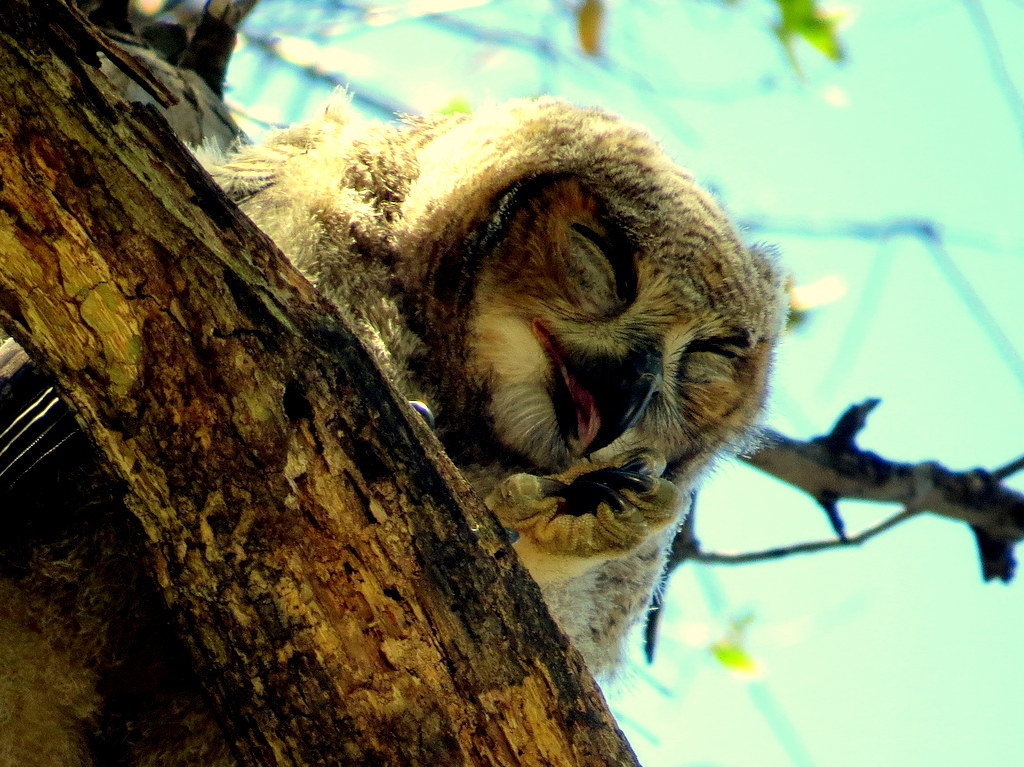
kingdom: Animalia
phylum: Chordata
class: Aves
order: Strigiformes
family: Strigidae
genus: Bubo
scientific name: Bubo virginianus
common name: Great horned owl
